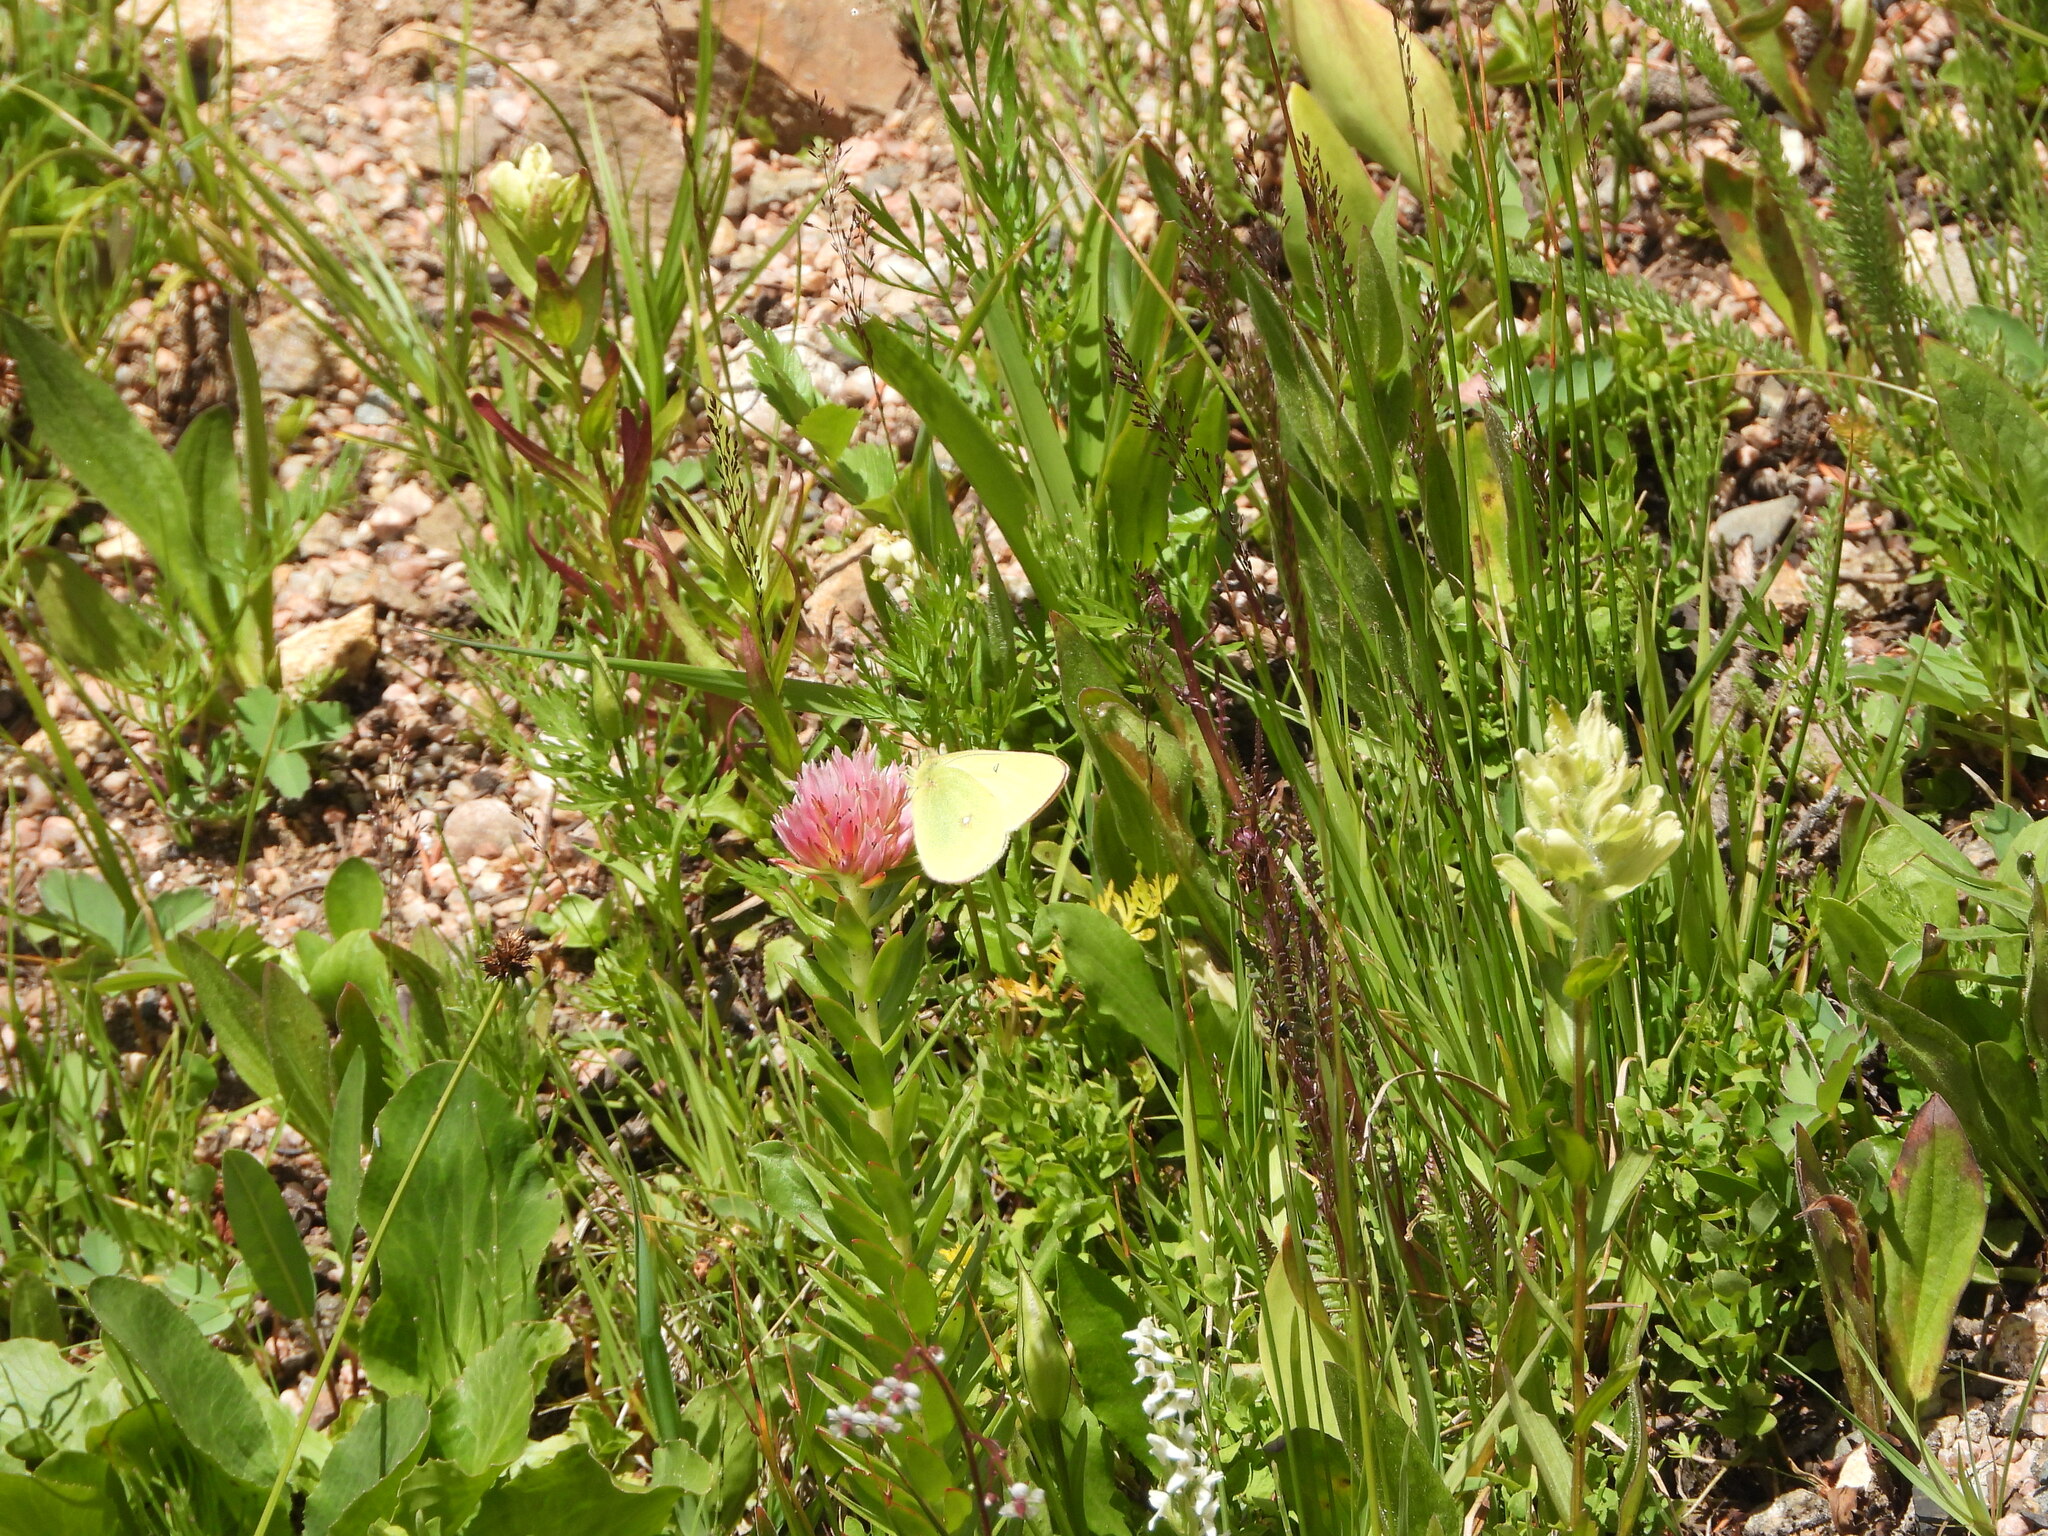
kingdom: Plantae
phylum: Tracheophyta
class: Magnoliopsida
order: Saxifragales
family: Crassulaceae
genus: Rhodiola
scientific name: Rhodiola rhodantha
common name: Red orpine
